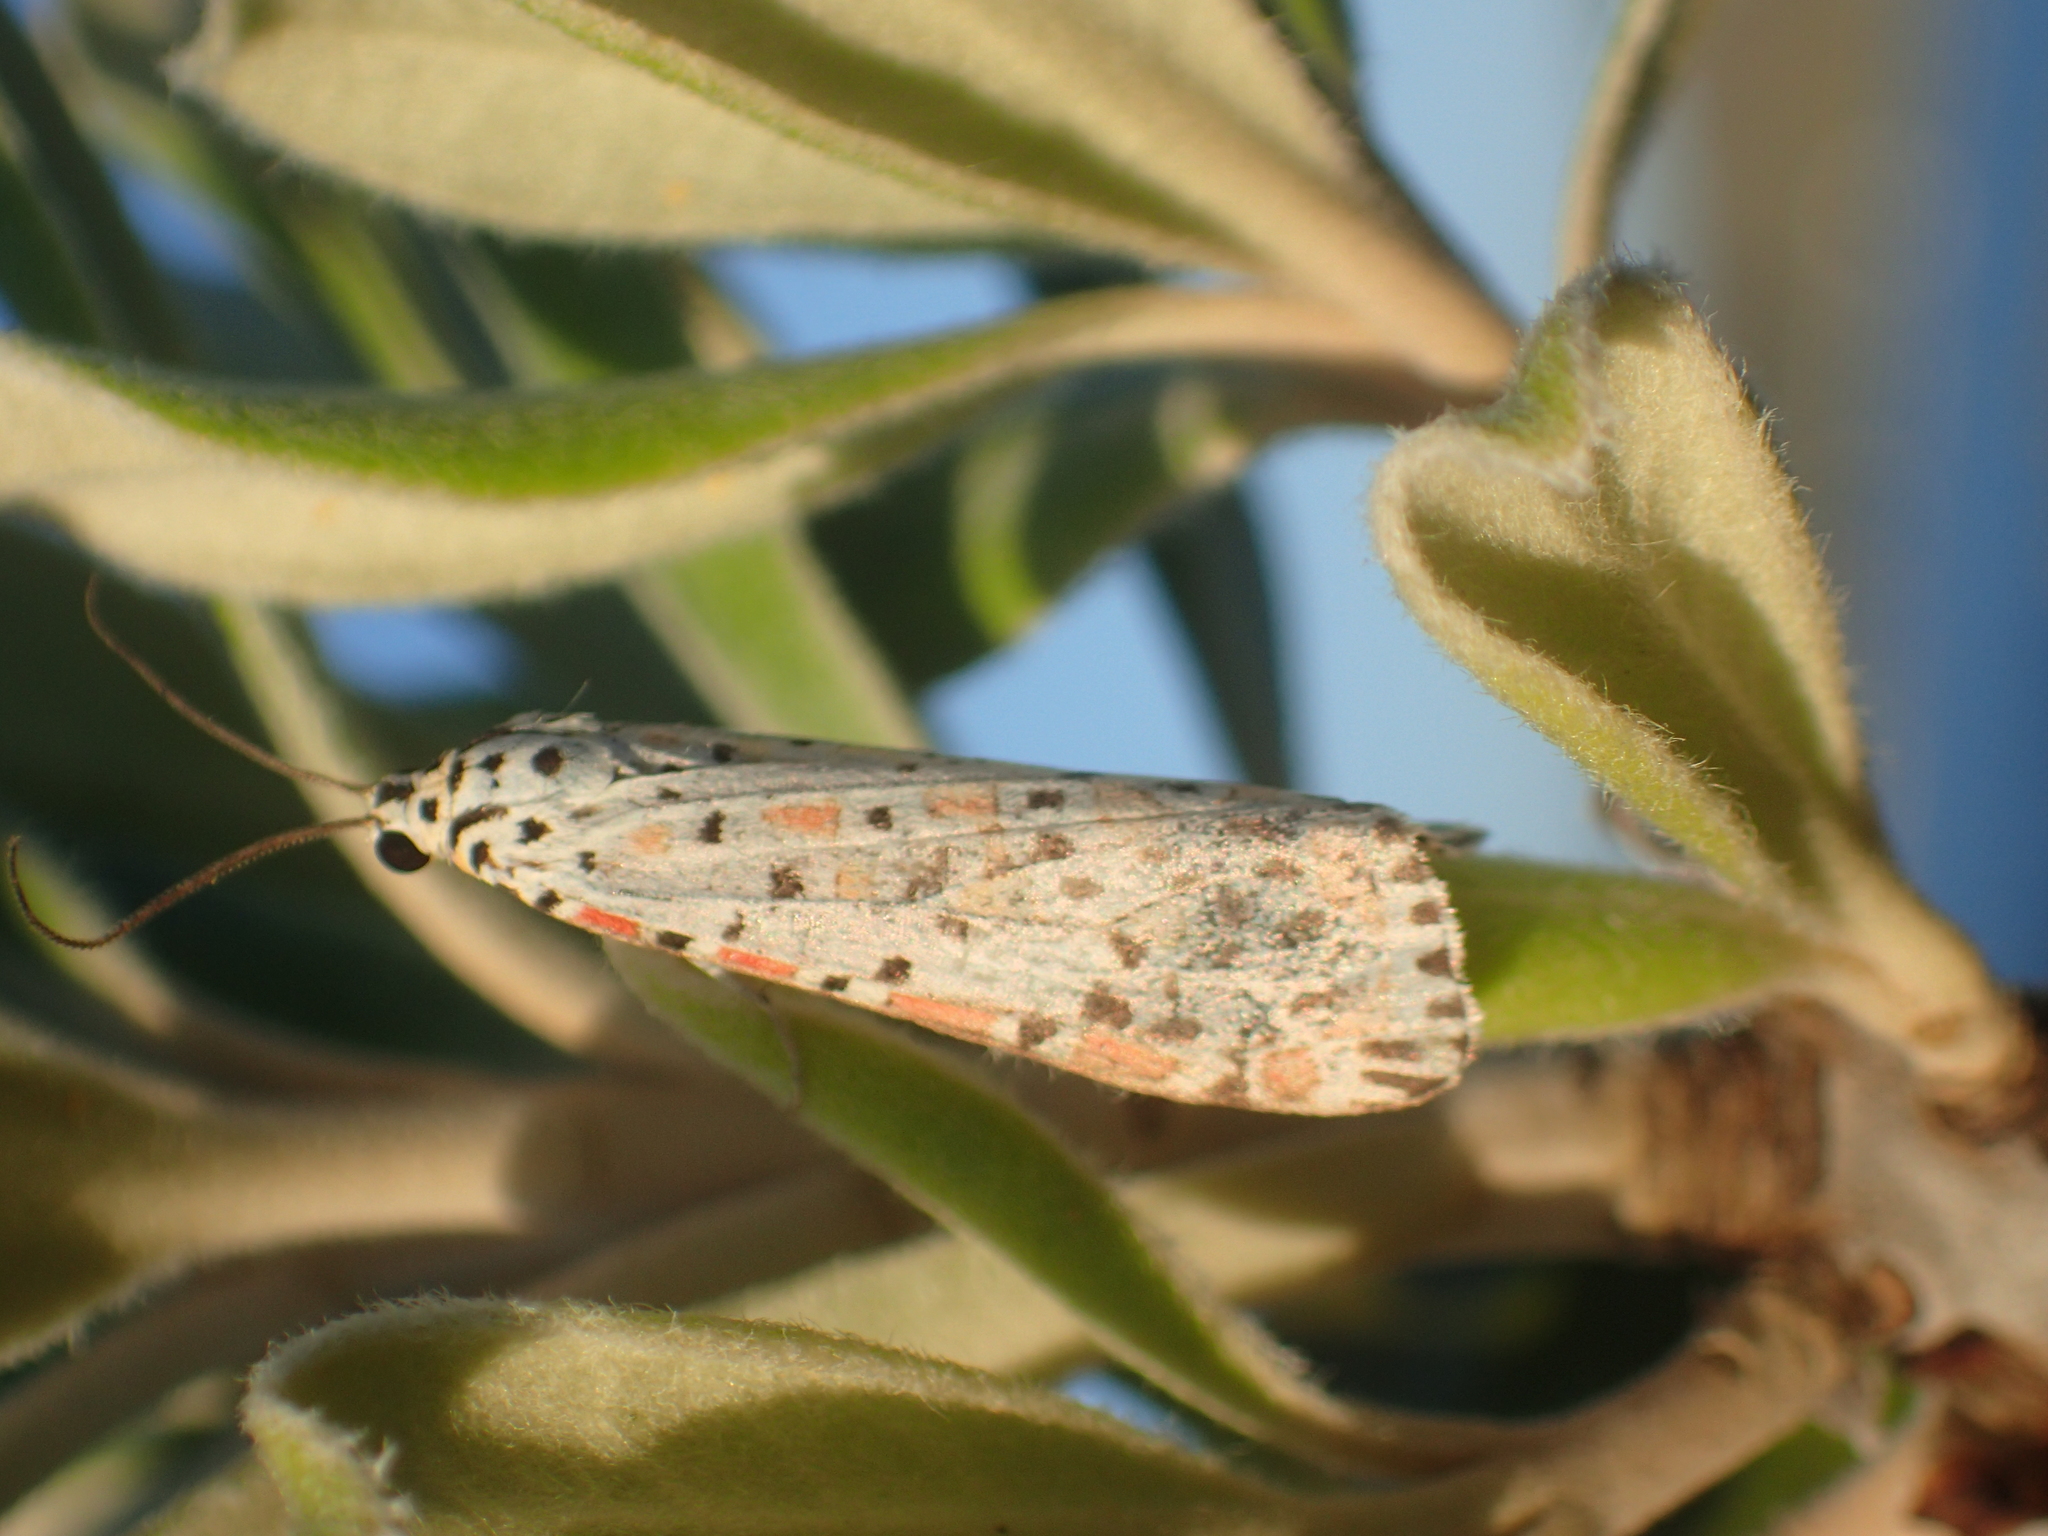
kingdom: Animalia
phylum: Arthropoda
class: Insecta
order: Lepidoptera
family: Erebidae
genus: Utetheisa
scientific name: Utetheisa pulchelloides
